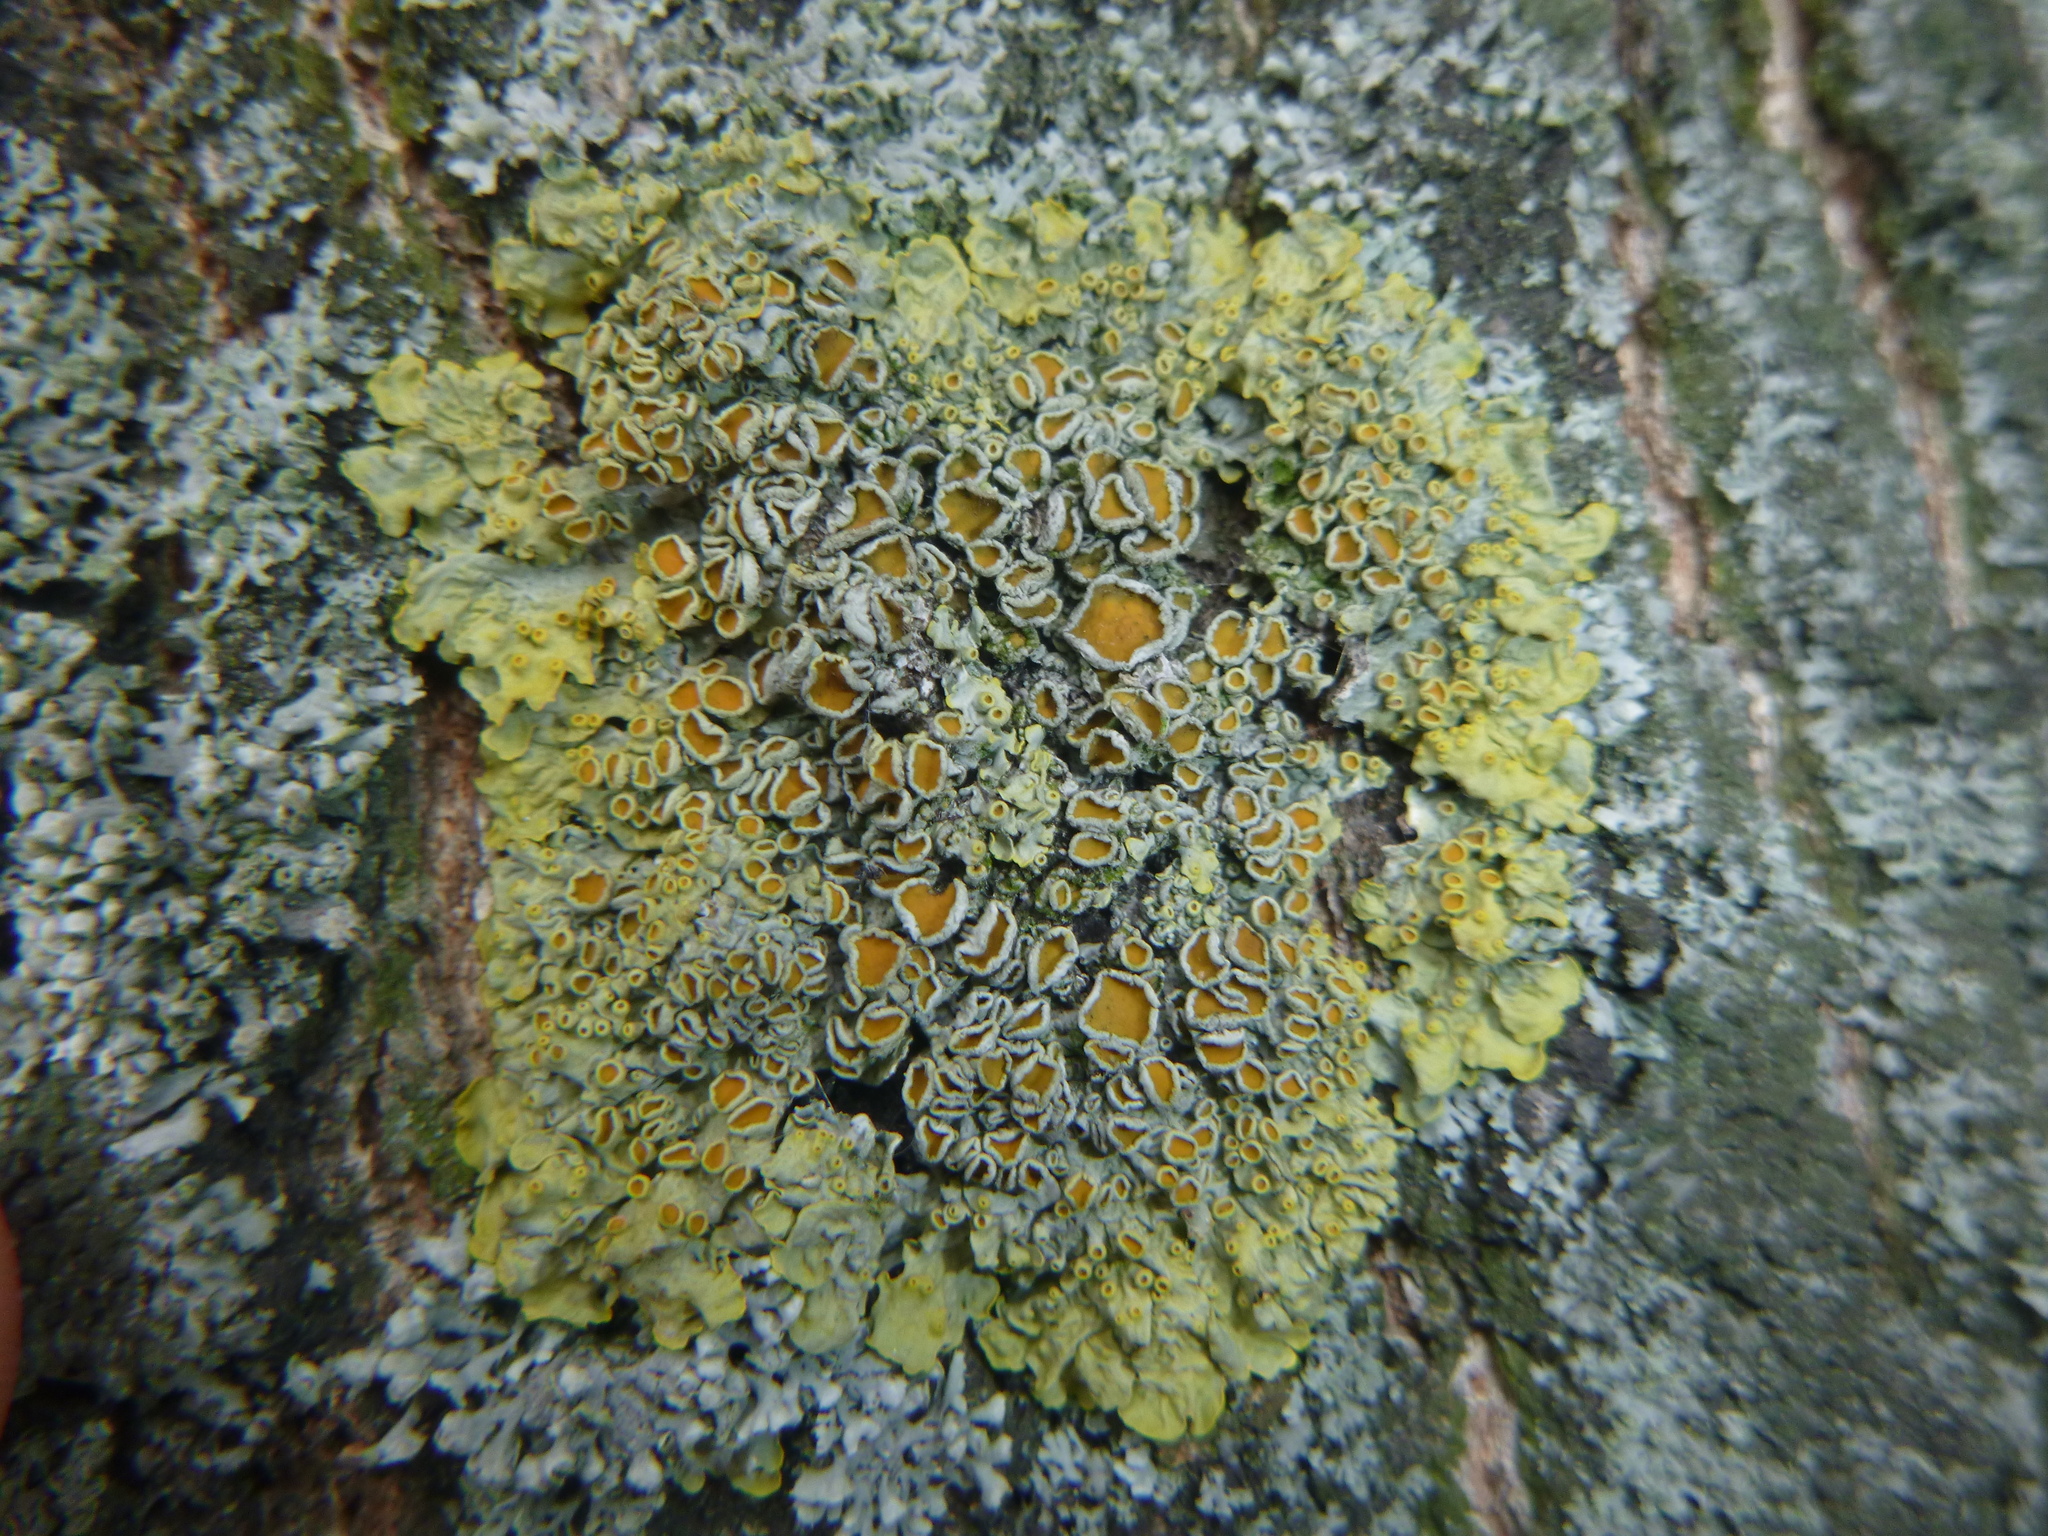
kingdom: Fungi
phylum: Ascomycota
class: Lecanoromycetes
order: Teloschistales
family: Teloschistaceae
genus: Xanthoria
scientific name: Xanthoria parietina
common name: Common orange lichen
